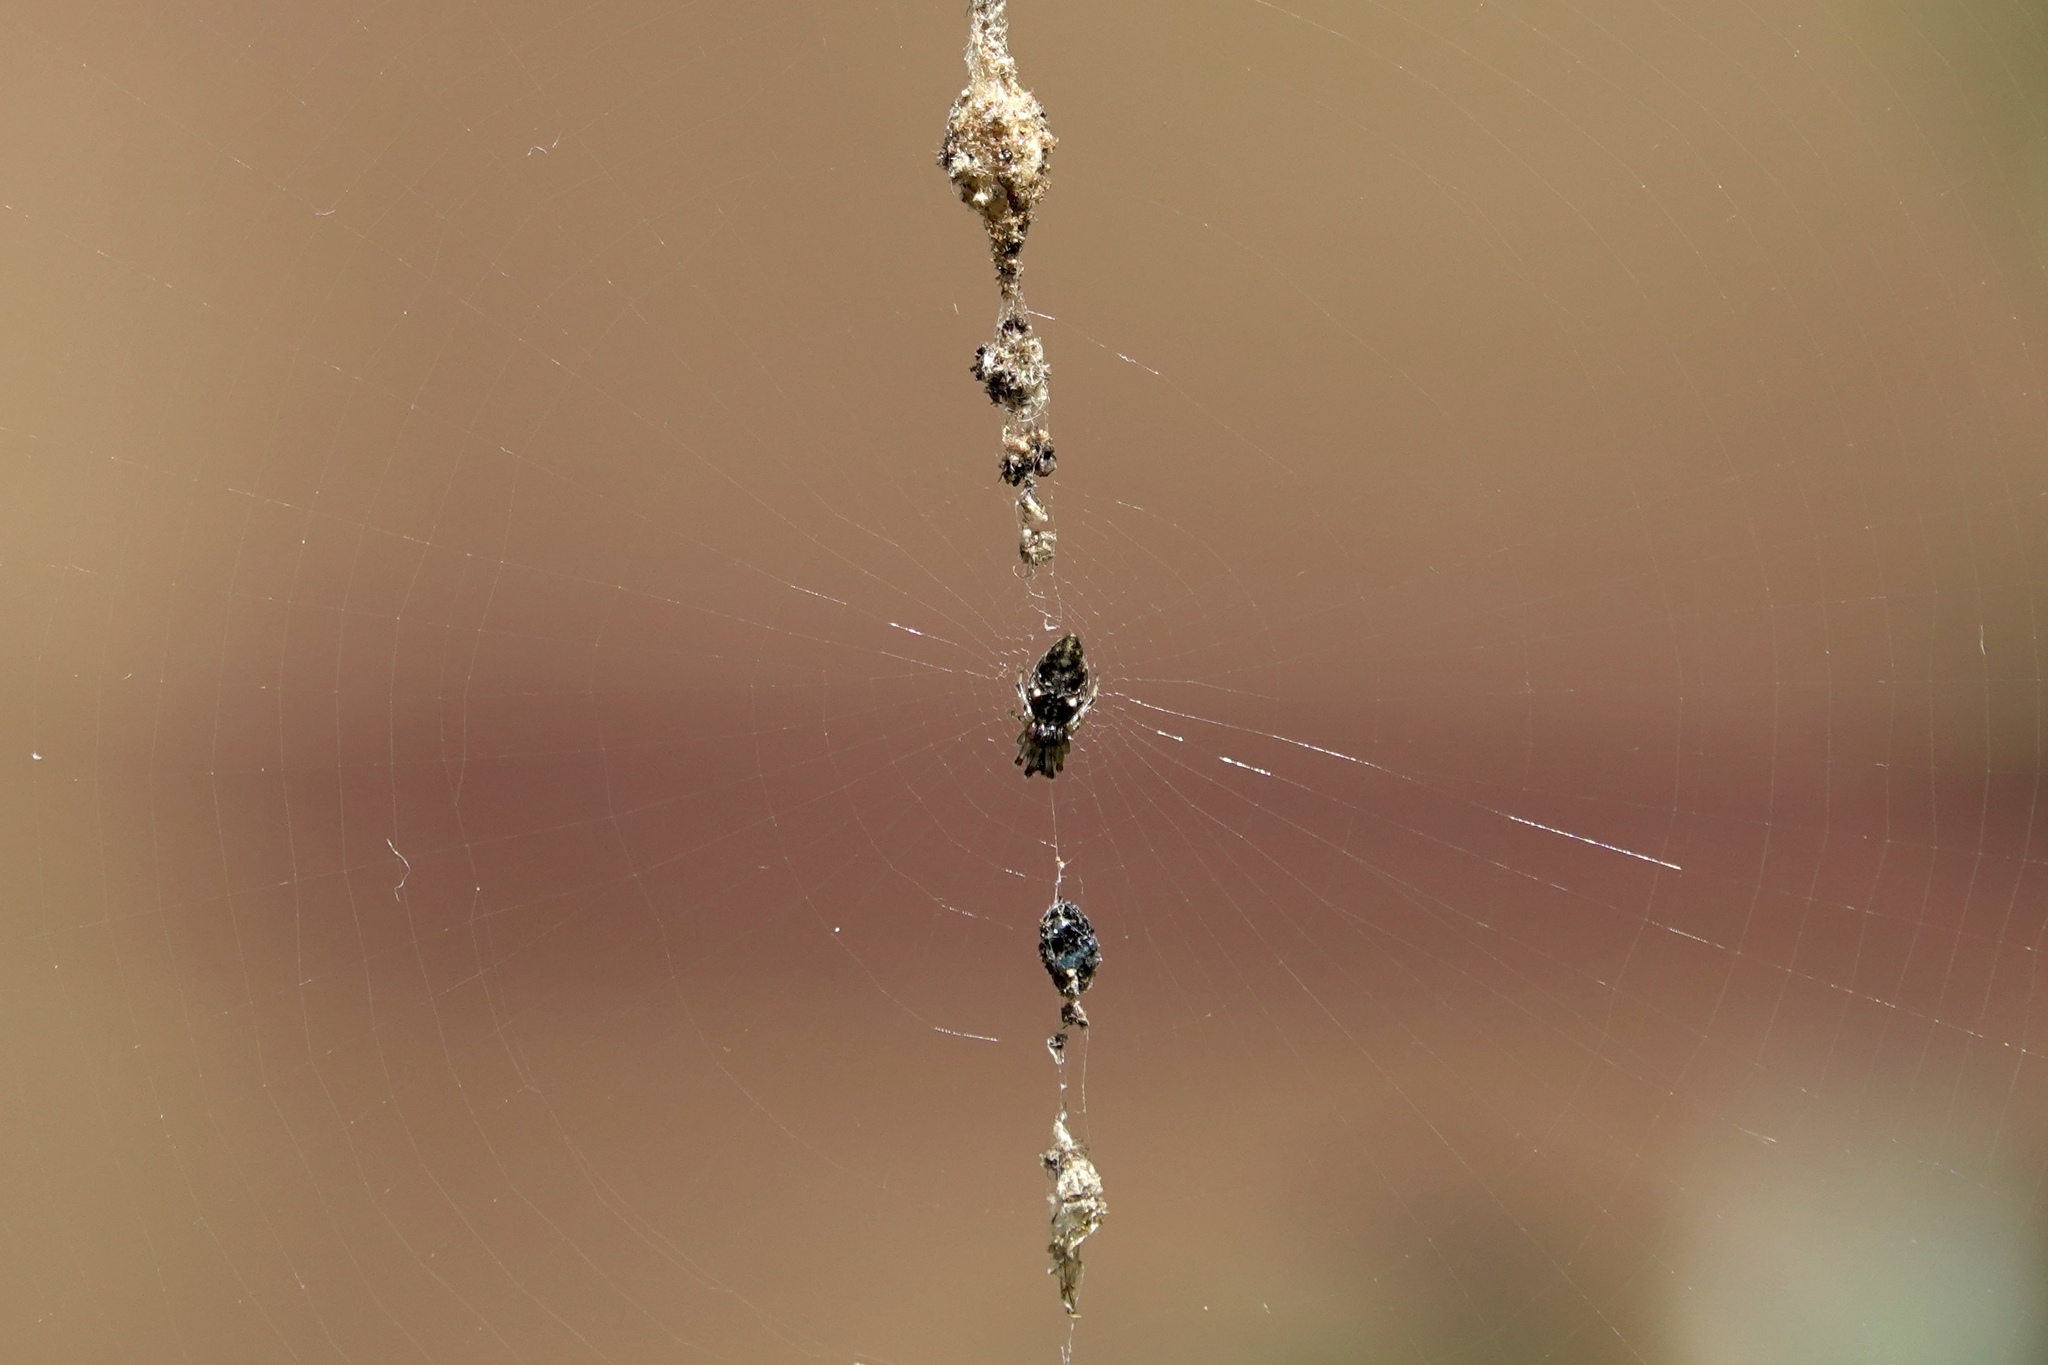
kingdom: Animalia
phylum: Arthropoda
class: Arachnida
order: Araneae
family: Araneidae
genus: Cyclosa
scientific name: Cyclosa turbinata
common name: Orb weavers
